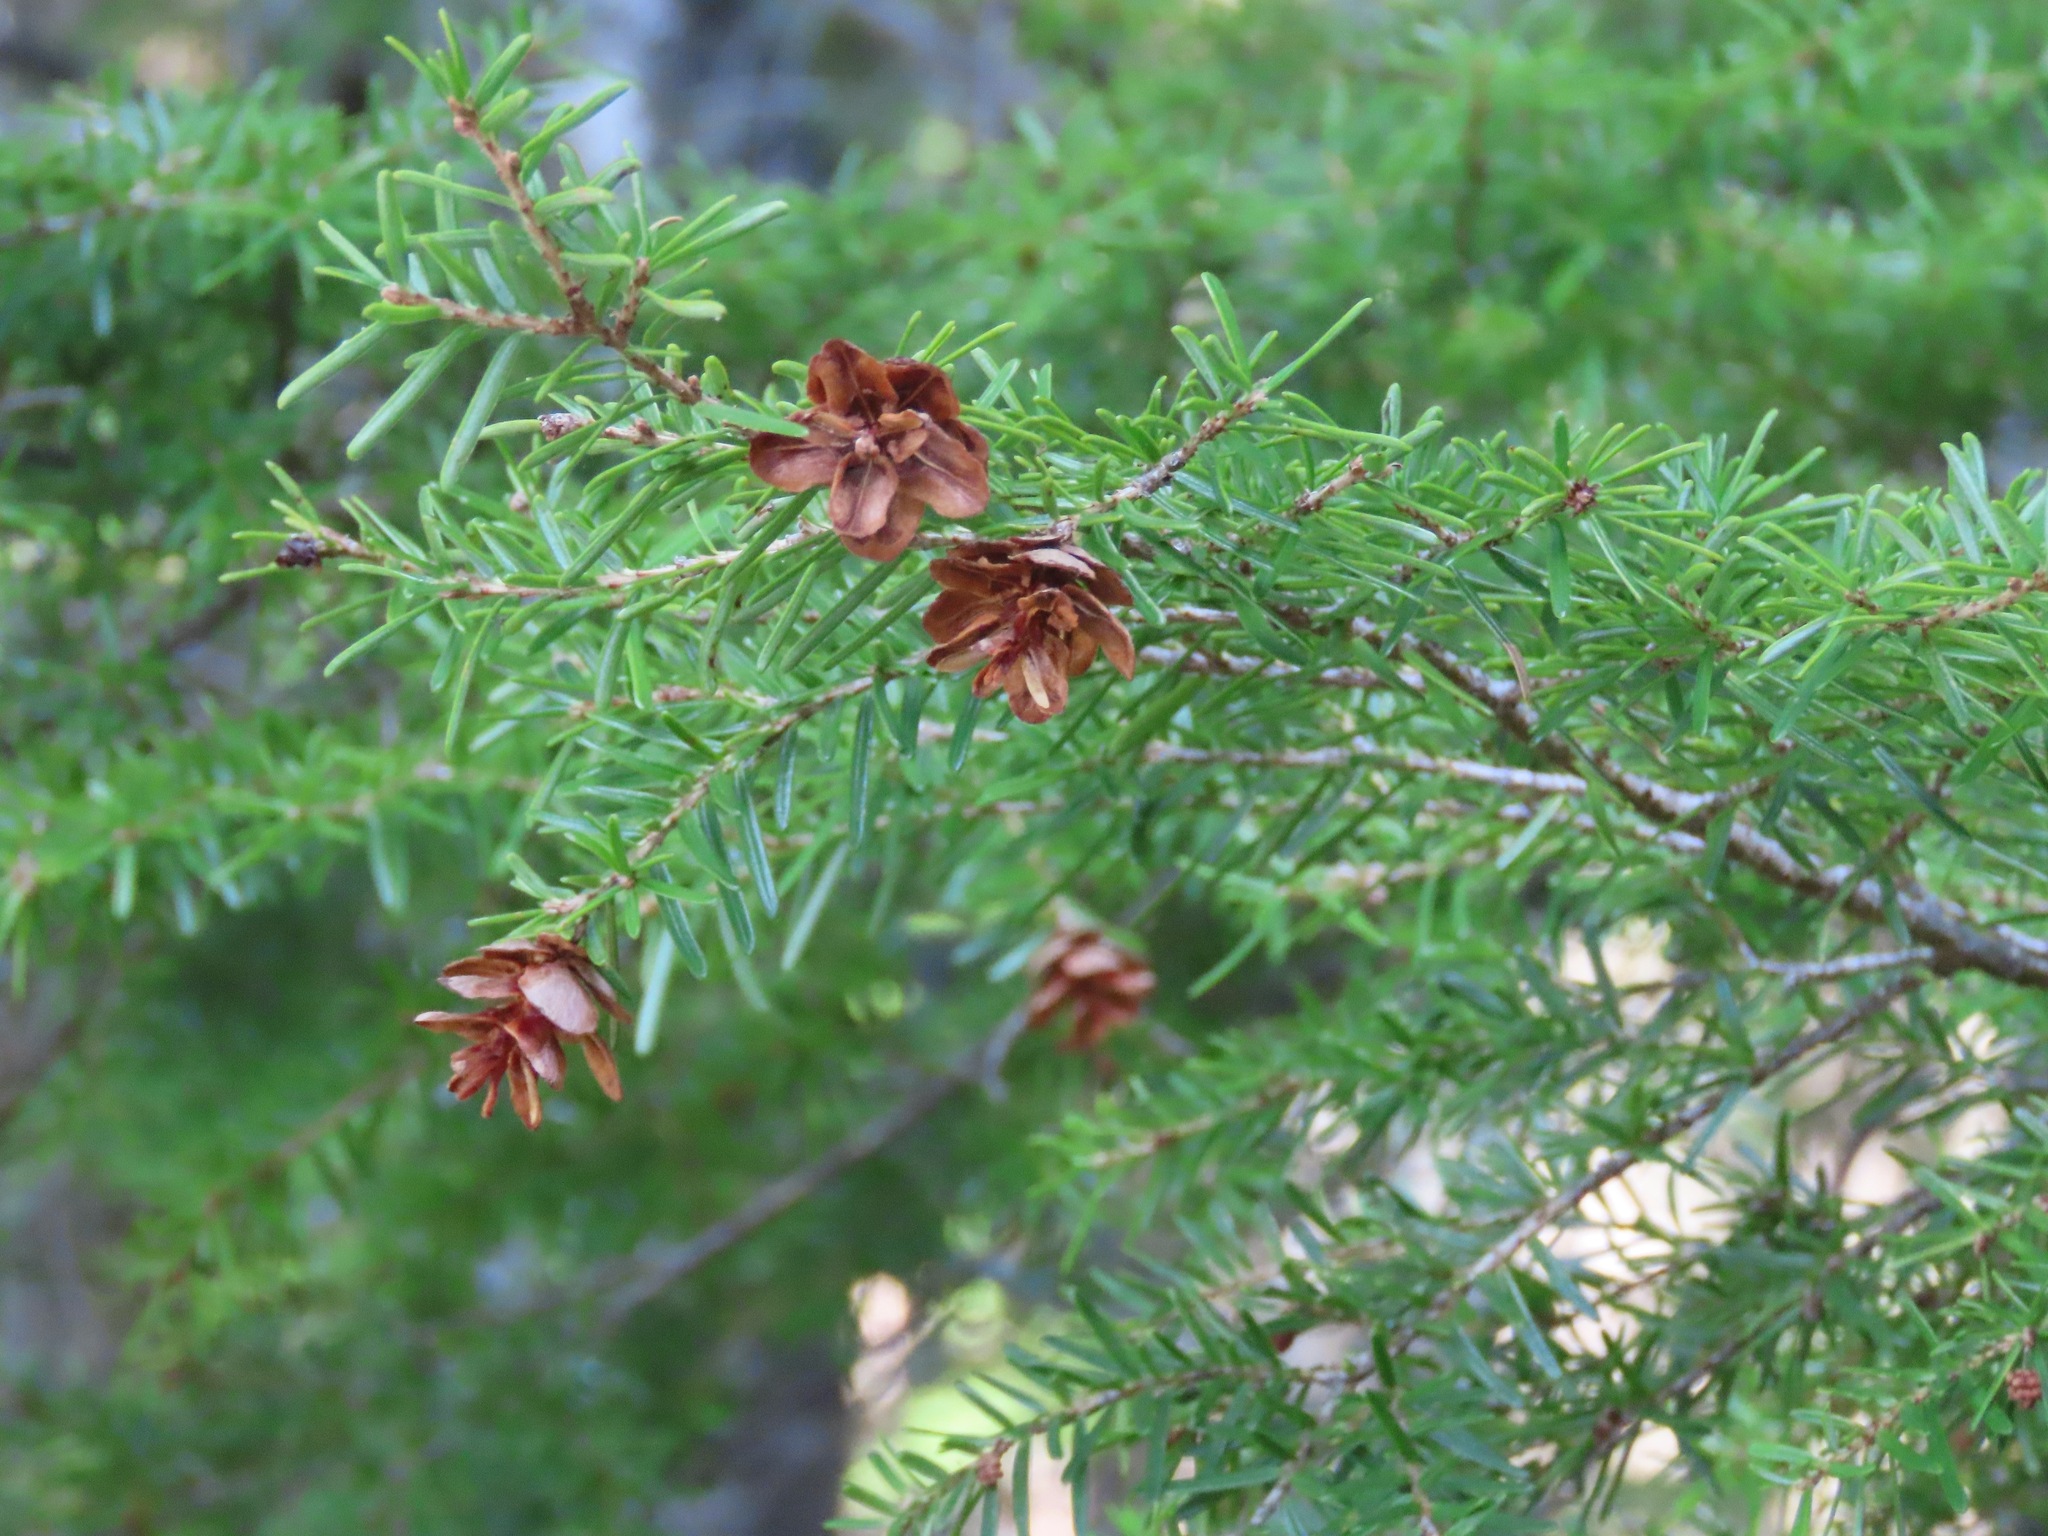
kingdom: Plantae
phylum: Tracheophyta
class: Pinopsida
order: Pinales
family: Pinaceae
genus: Tsuga
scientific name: Tsuga heterophylla
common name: Western hemlock
